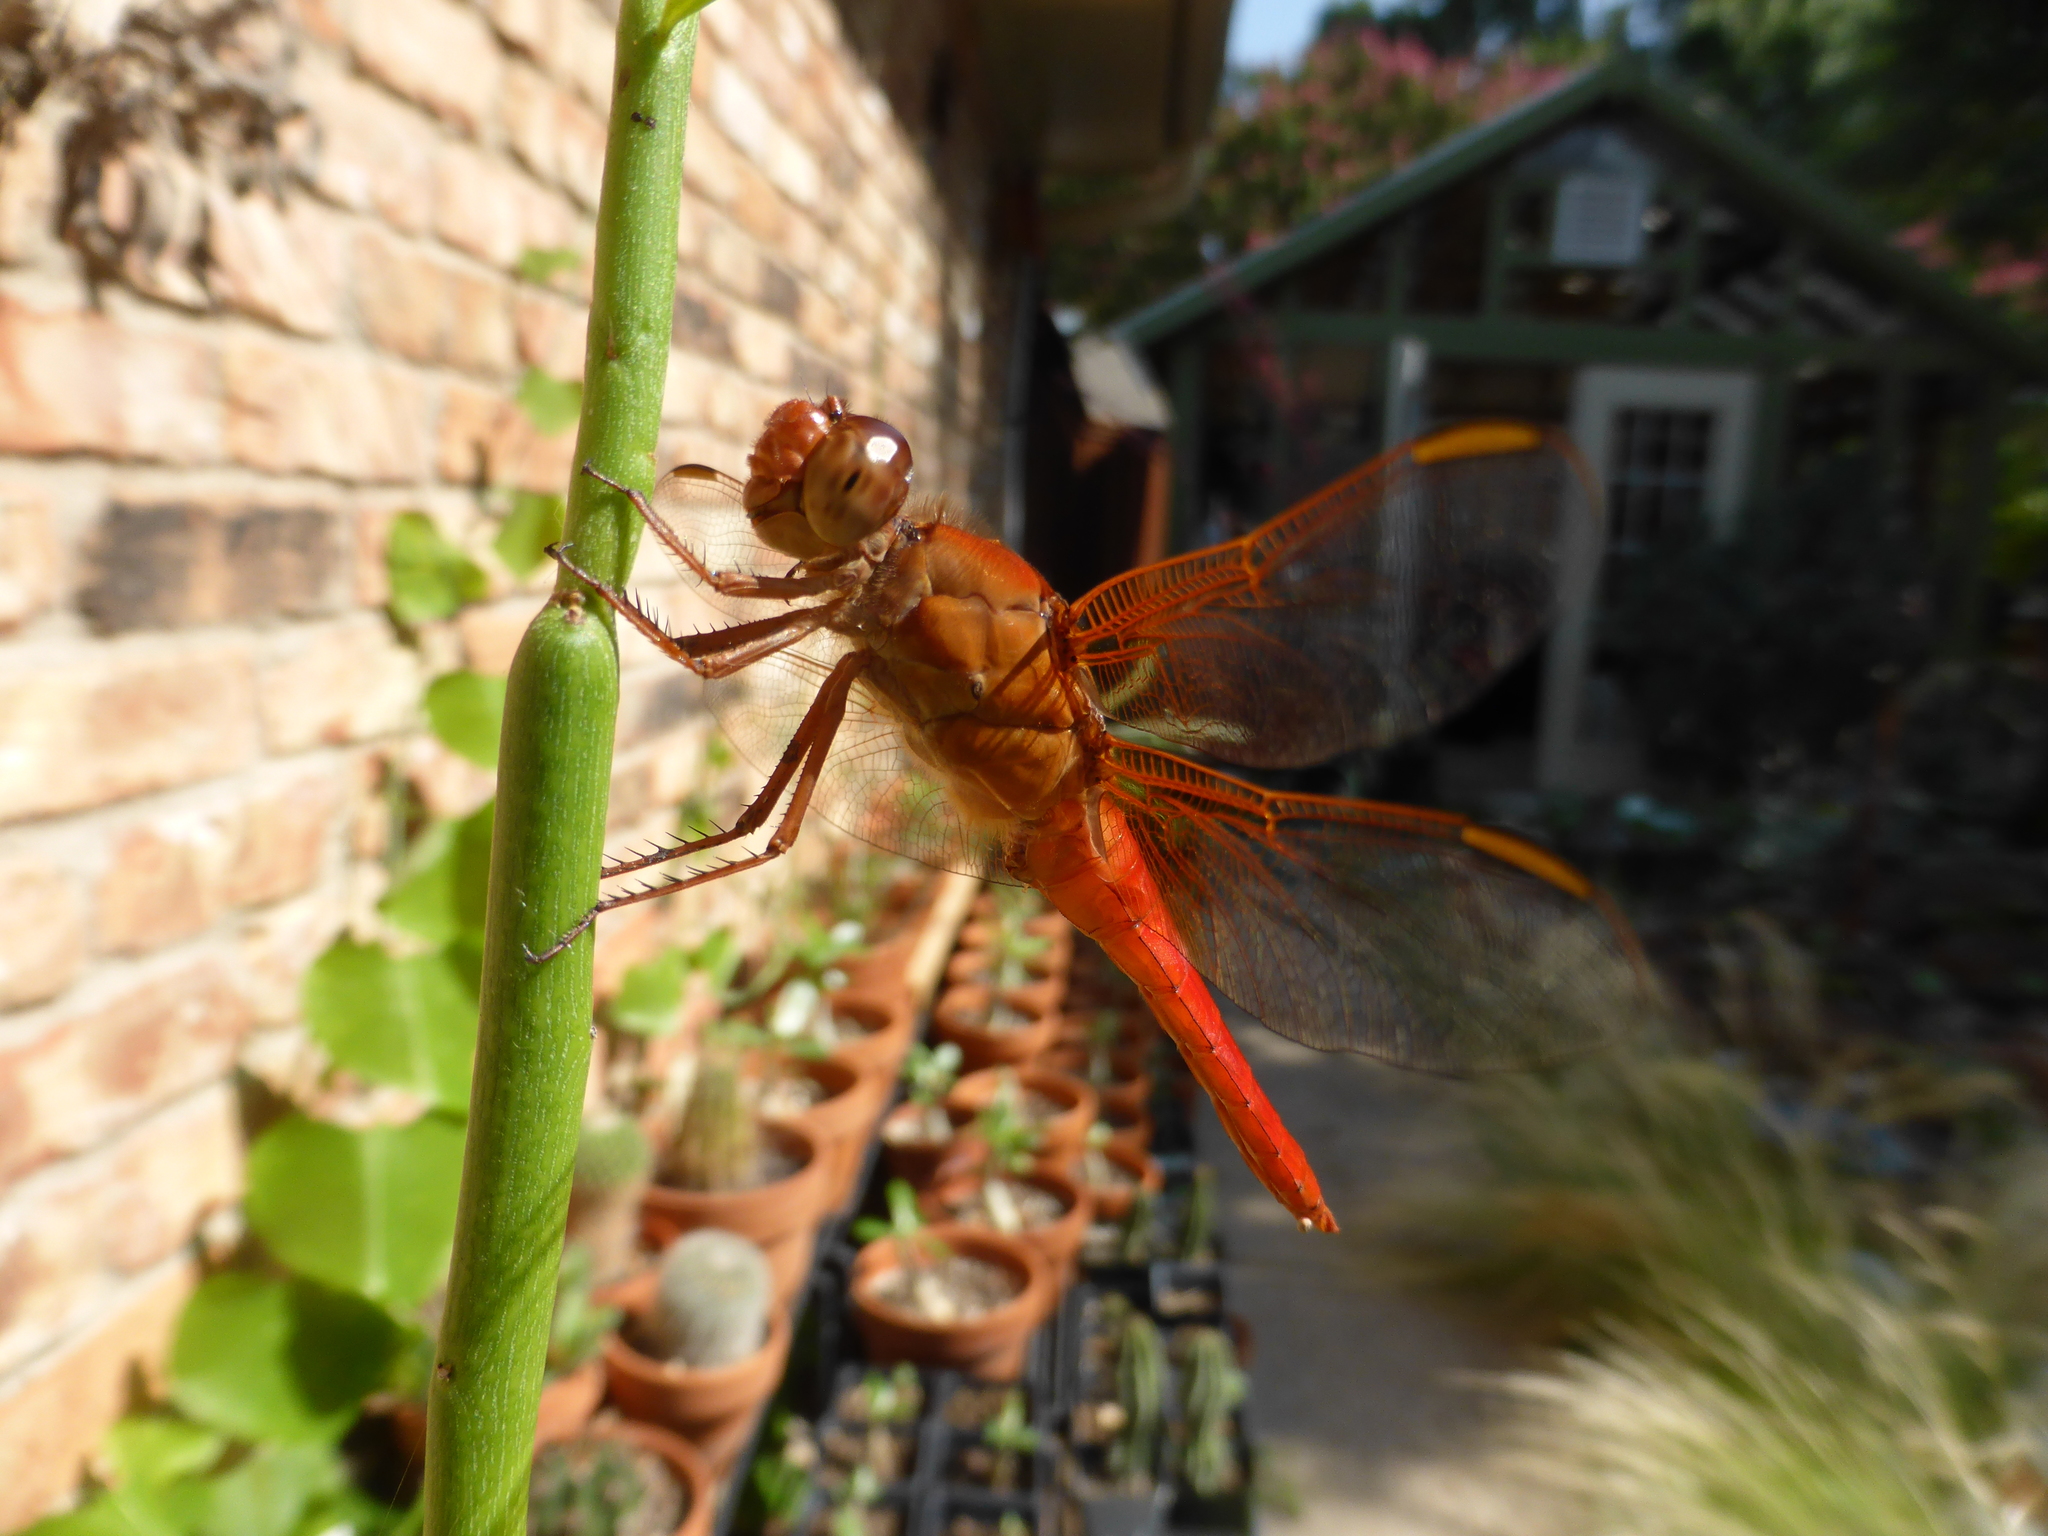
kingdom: Animalia
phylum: Arthropoda
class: Insecta
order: Odonata
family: Libellulidae
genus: Libellula
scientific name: Libellula croceipennis
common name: Neon skimmer
